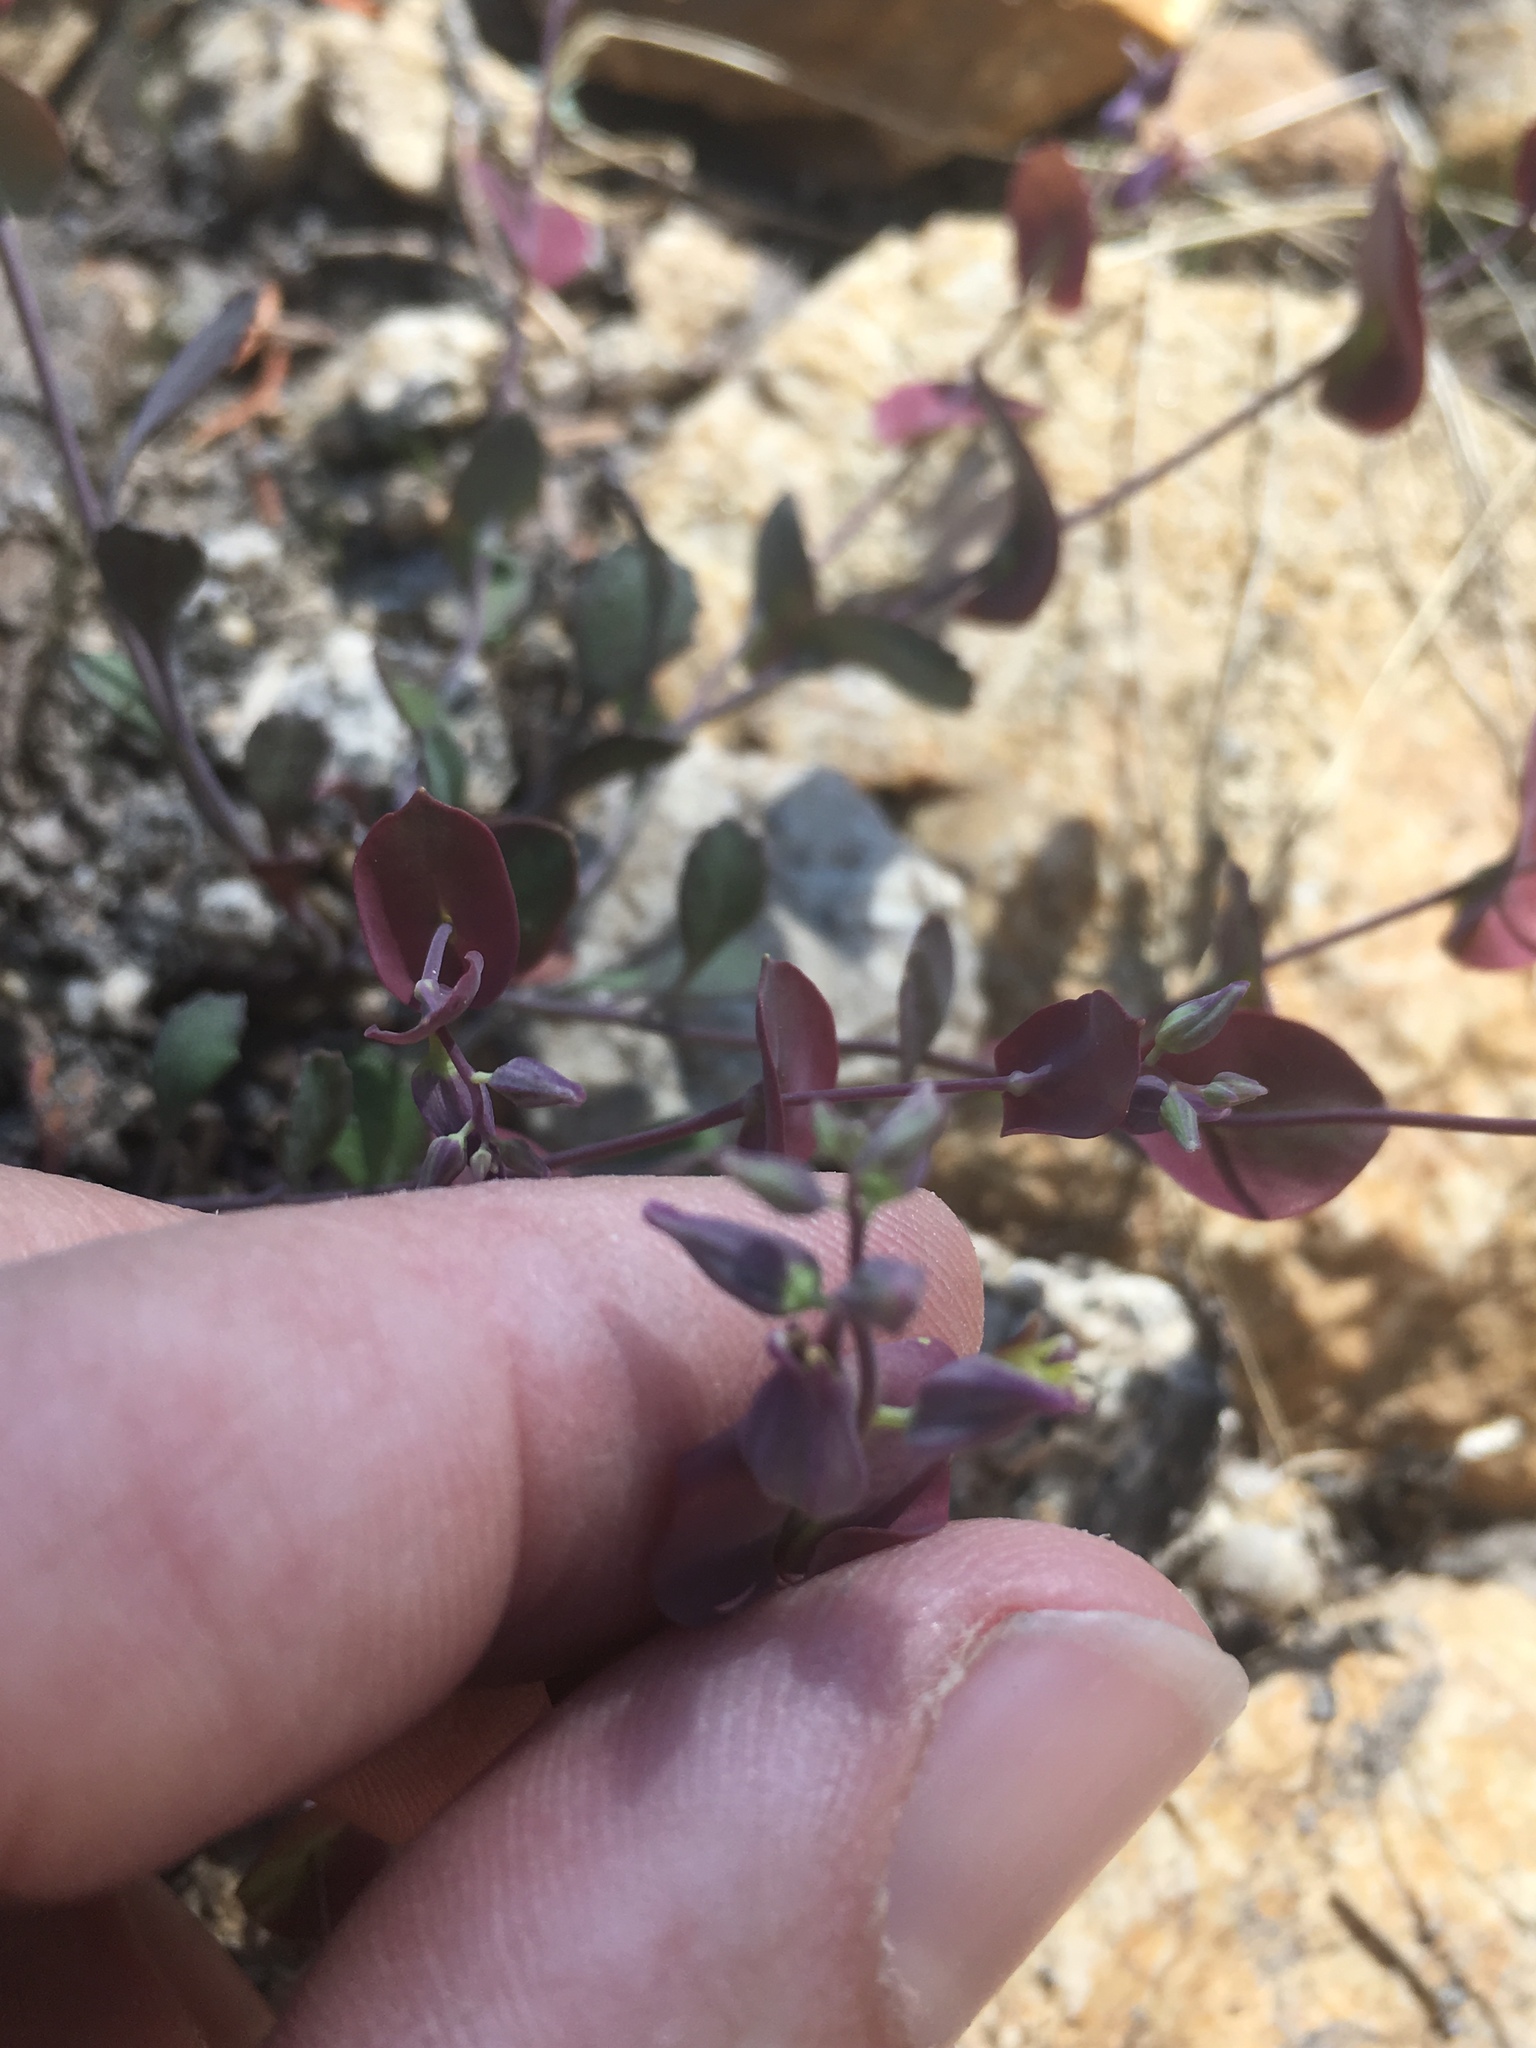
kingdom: Plantae
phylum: Tracheophyta
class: Magnoliopsida
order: Brassicales
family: Brassicaceae
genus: Streptanthus
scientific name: Streptanthus tortuosus
